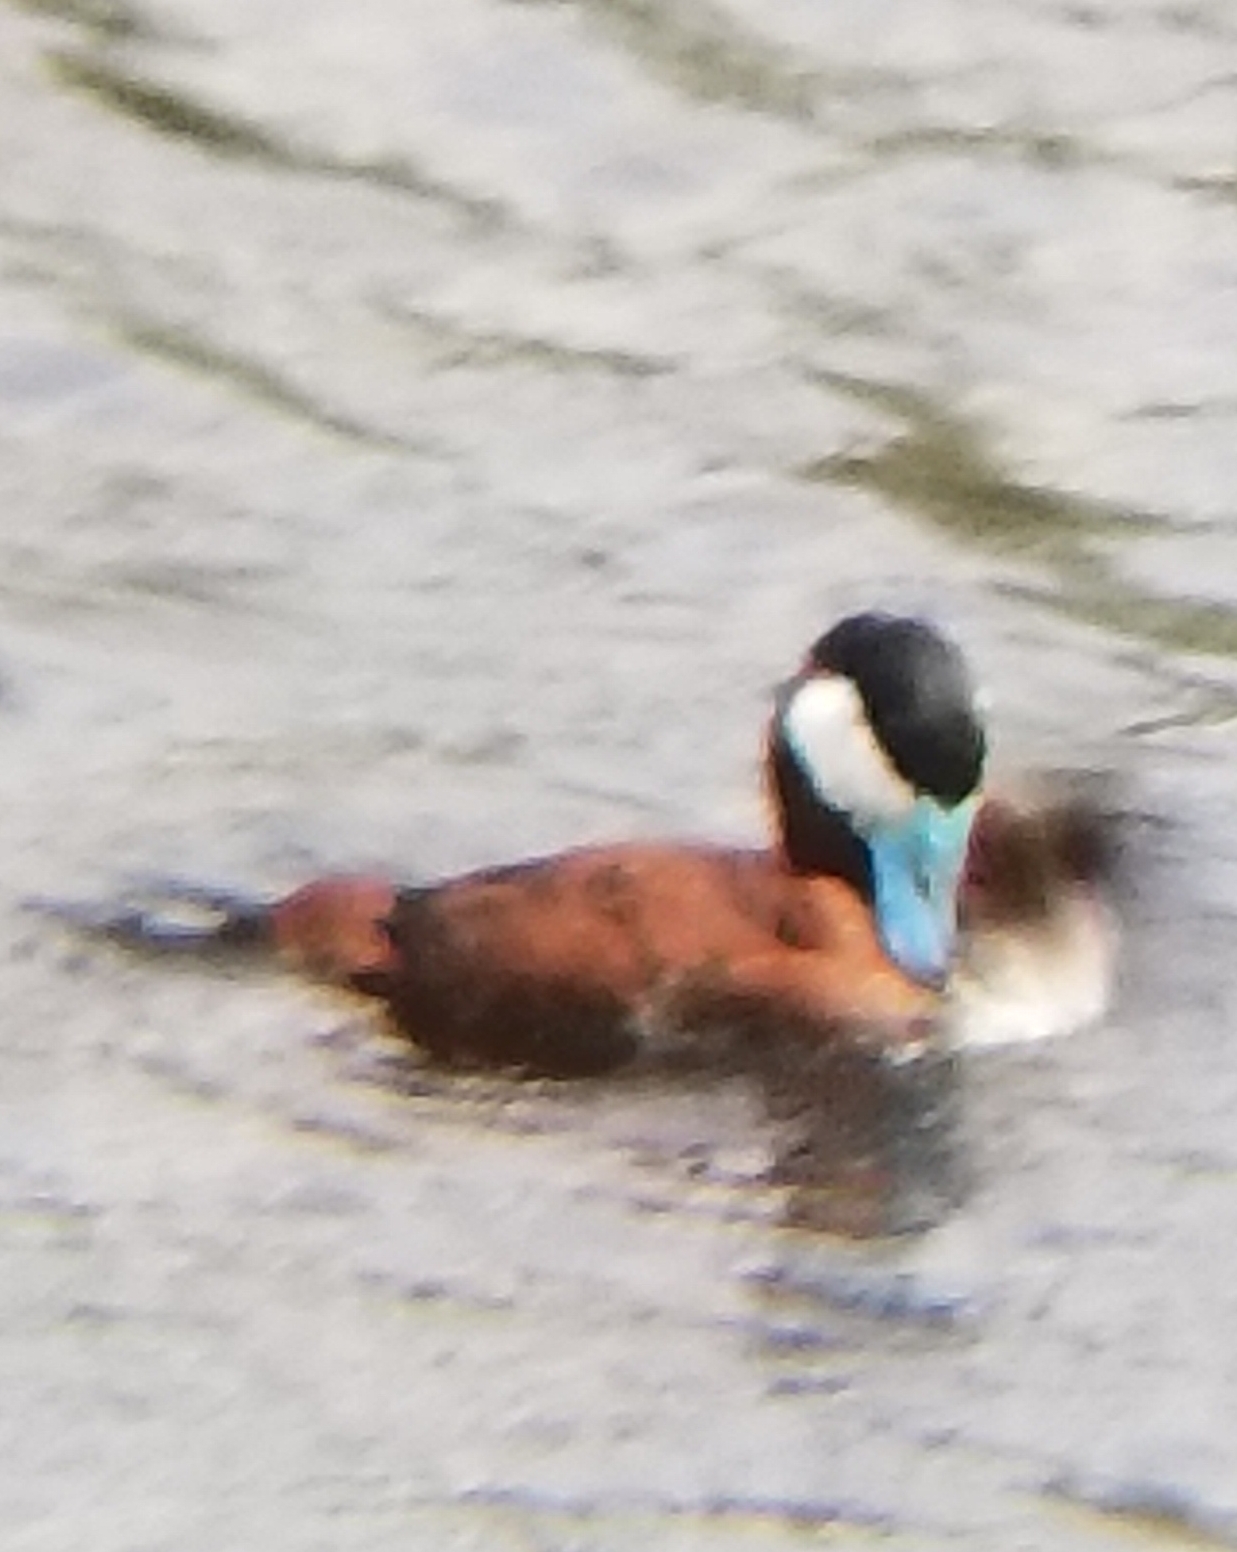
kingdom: Animalia
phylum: Chordata
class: Aves
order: Anseriformes
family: Anatidae
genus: Oxyura
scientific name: Oxyura jamaicensis
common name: Ruddy duck
